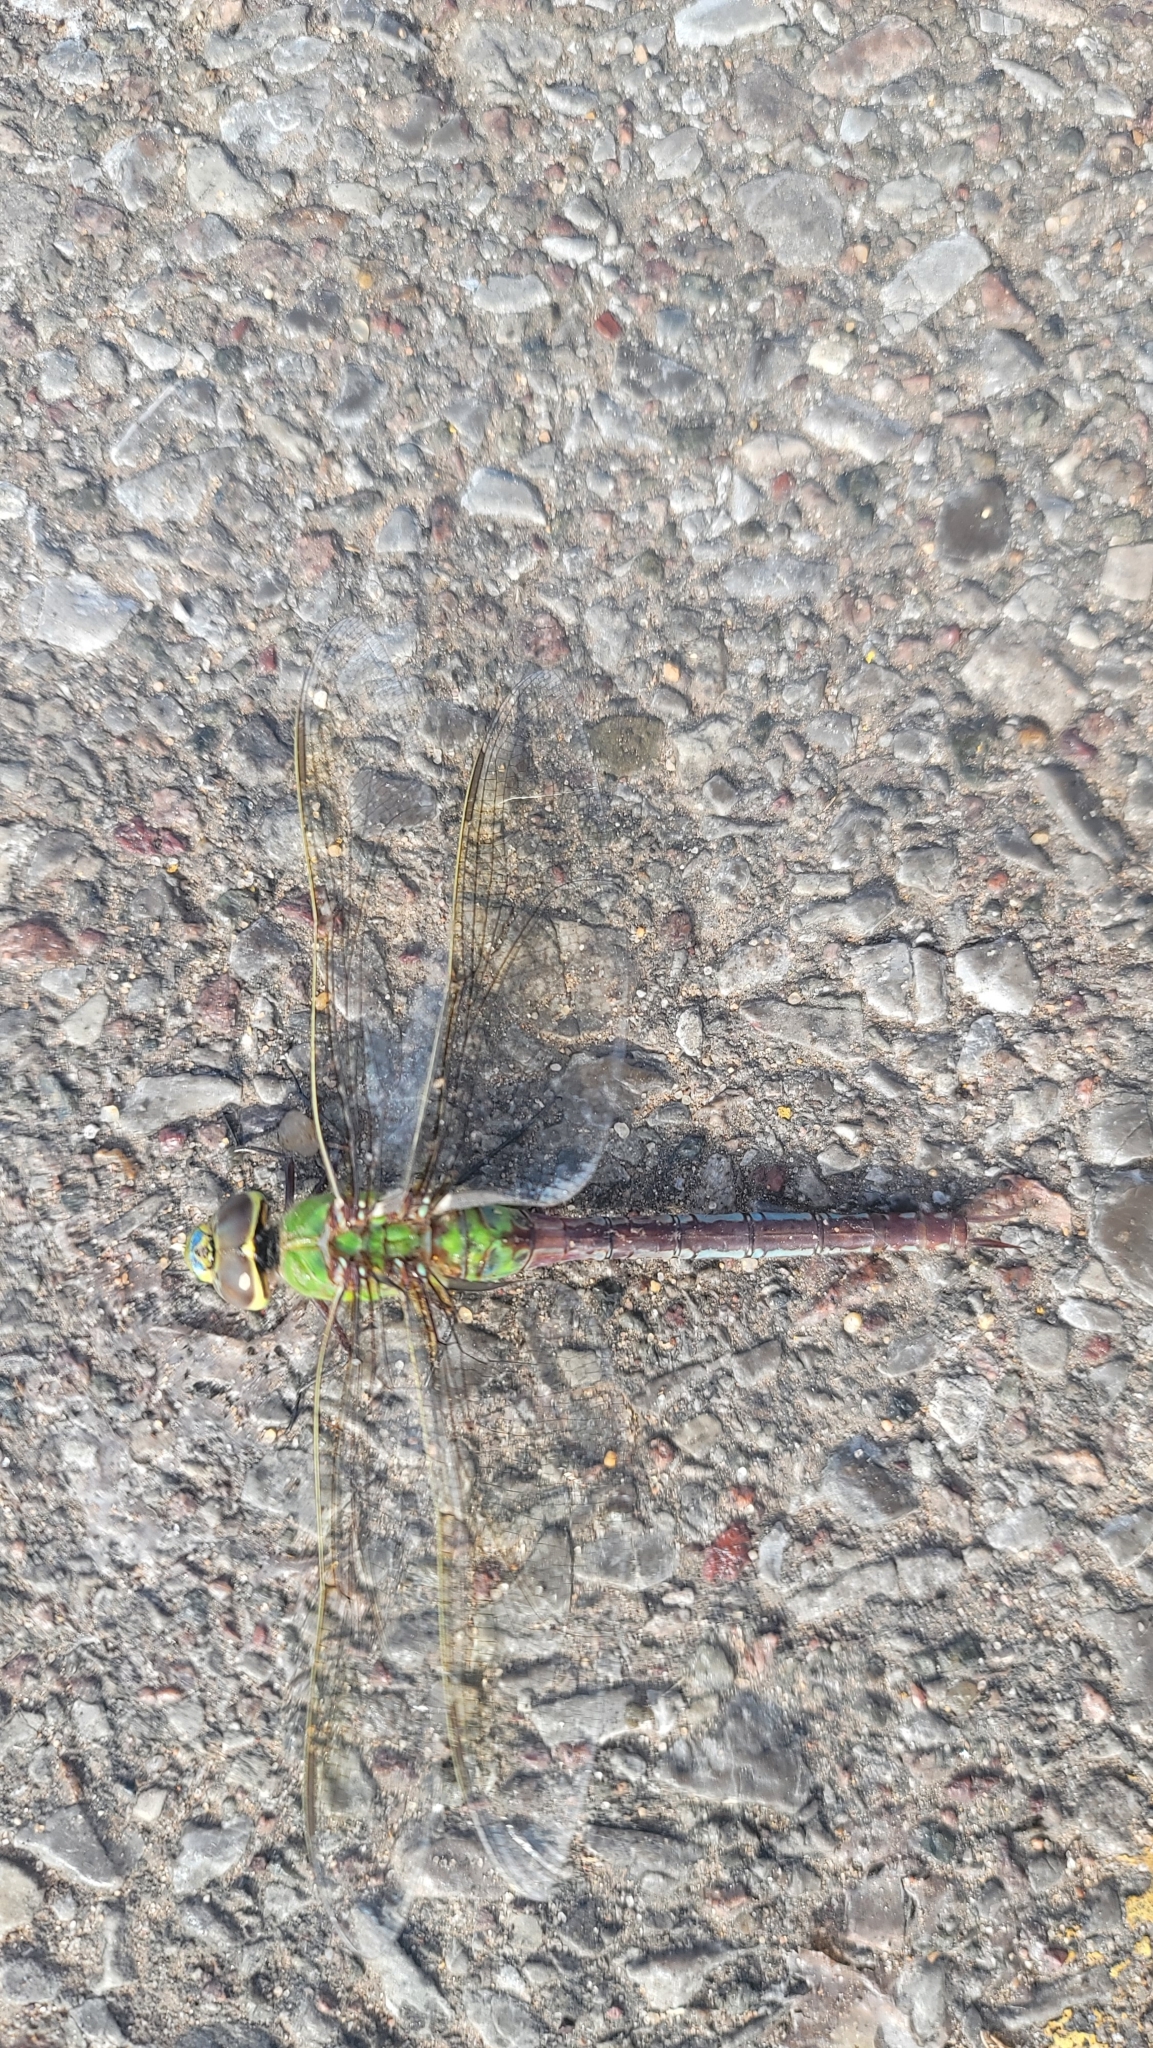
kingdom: Animalia
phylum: Arthropoda
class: Insecta
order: Odonata
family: Aeshnidae
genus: Anax
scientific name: Anax junius
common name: Common green darner
